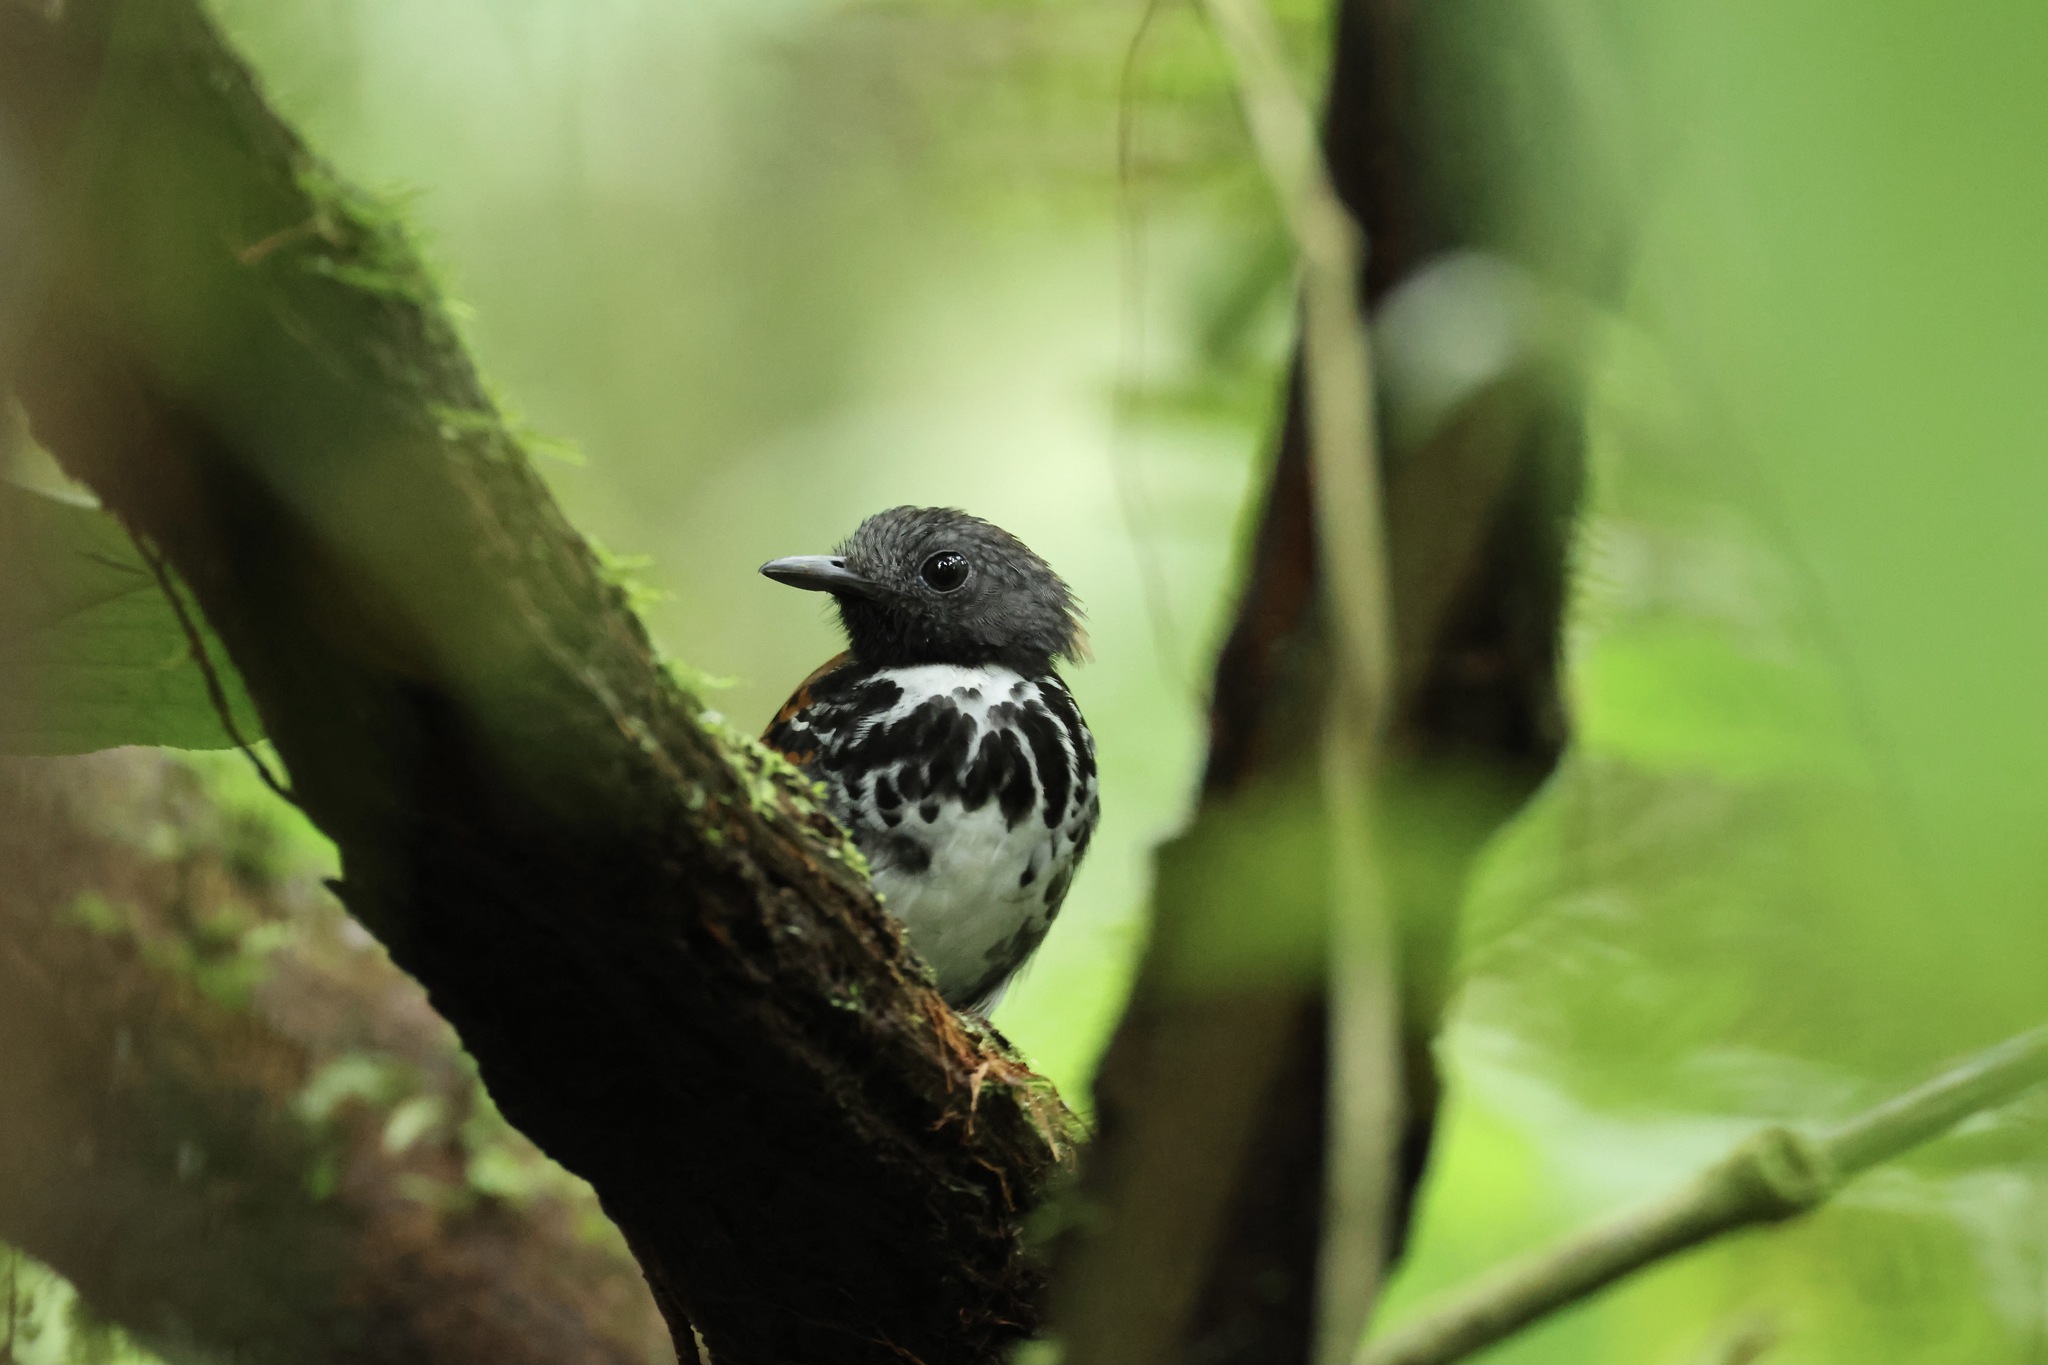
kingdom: Animalia
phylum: Chordata
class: Aves
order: Passeriformes
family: Thamnophilidae
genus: Hylophylax
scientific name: Hylophylax naevioides
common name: Spotted antbird
